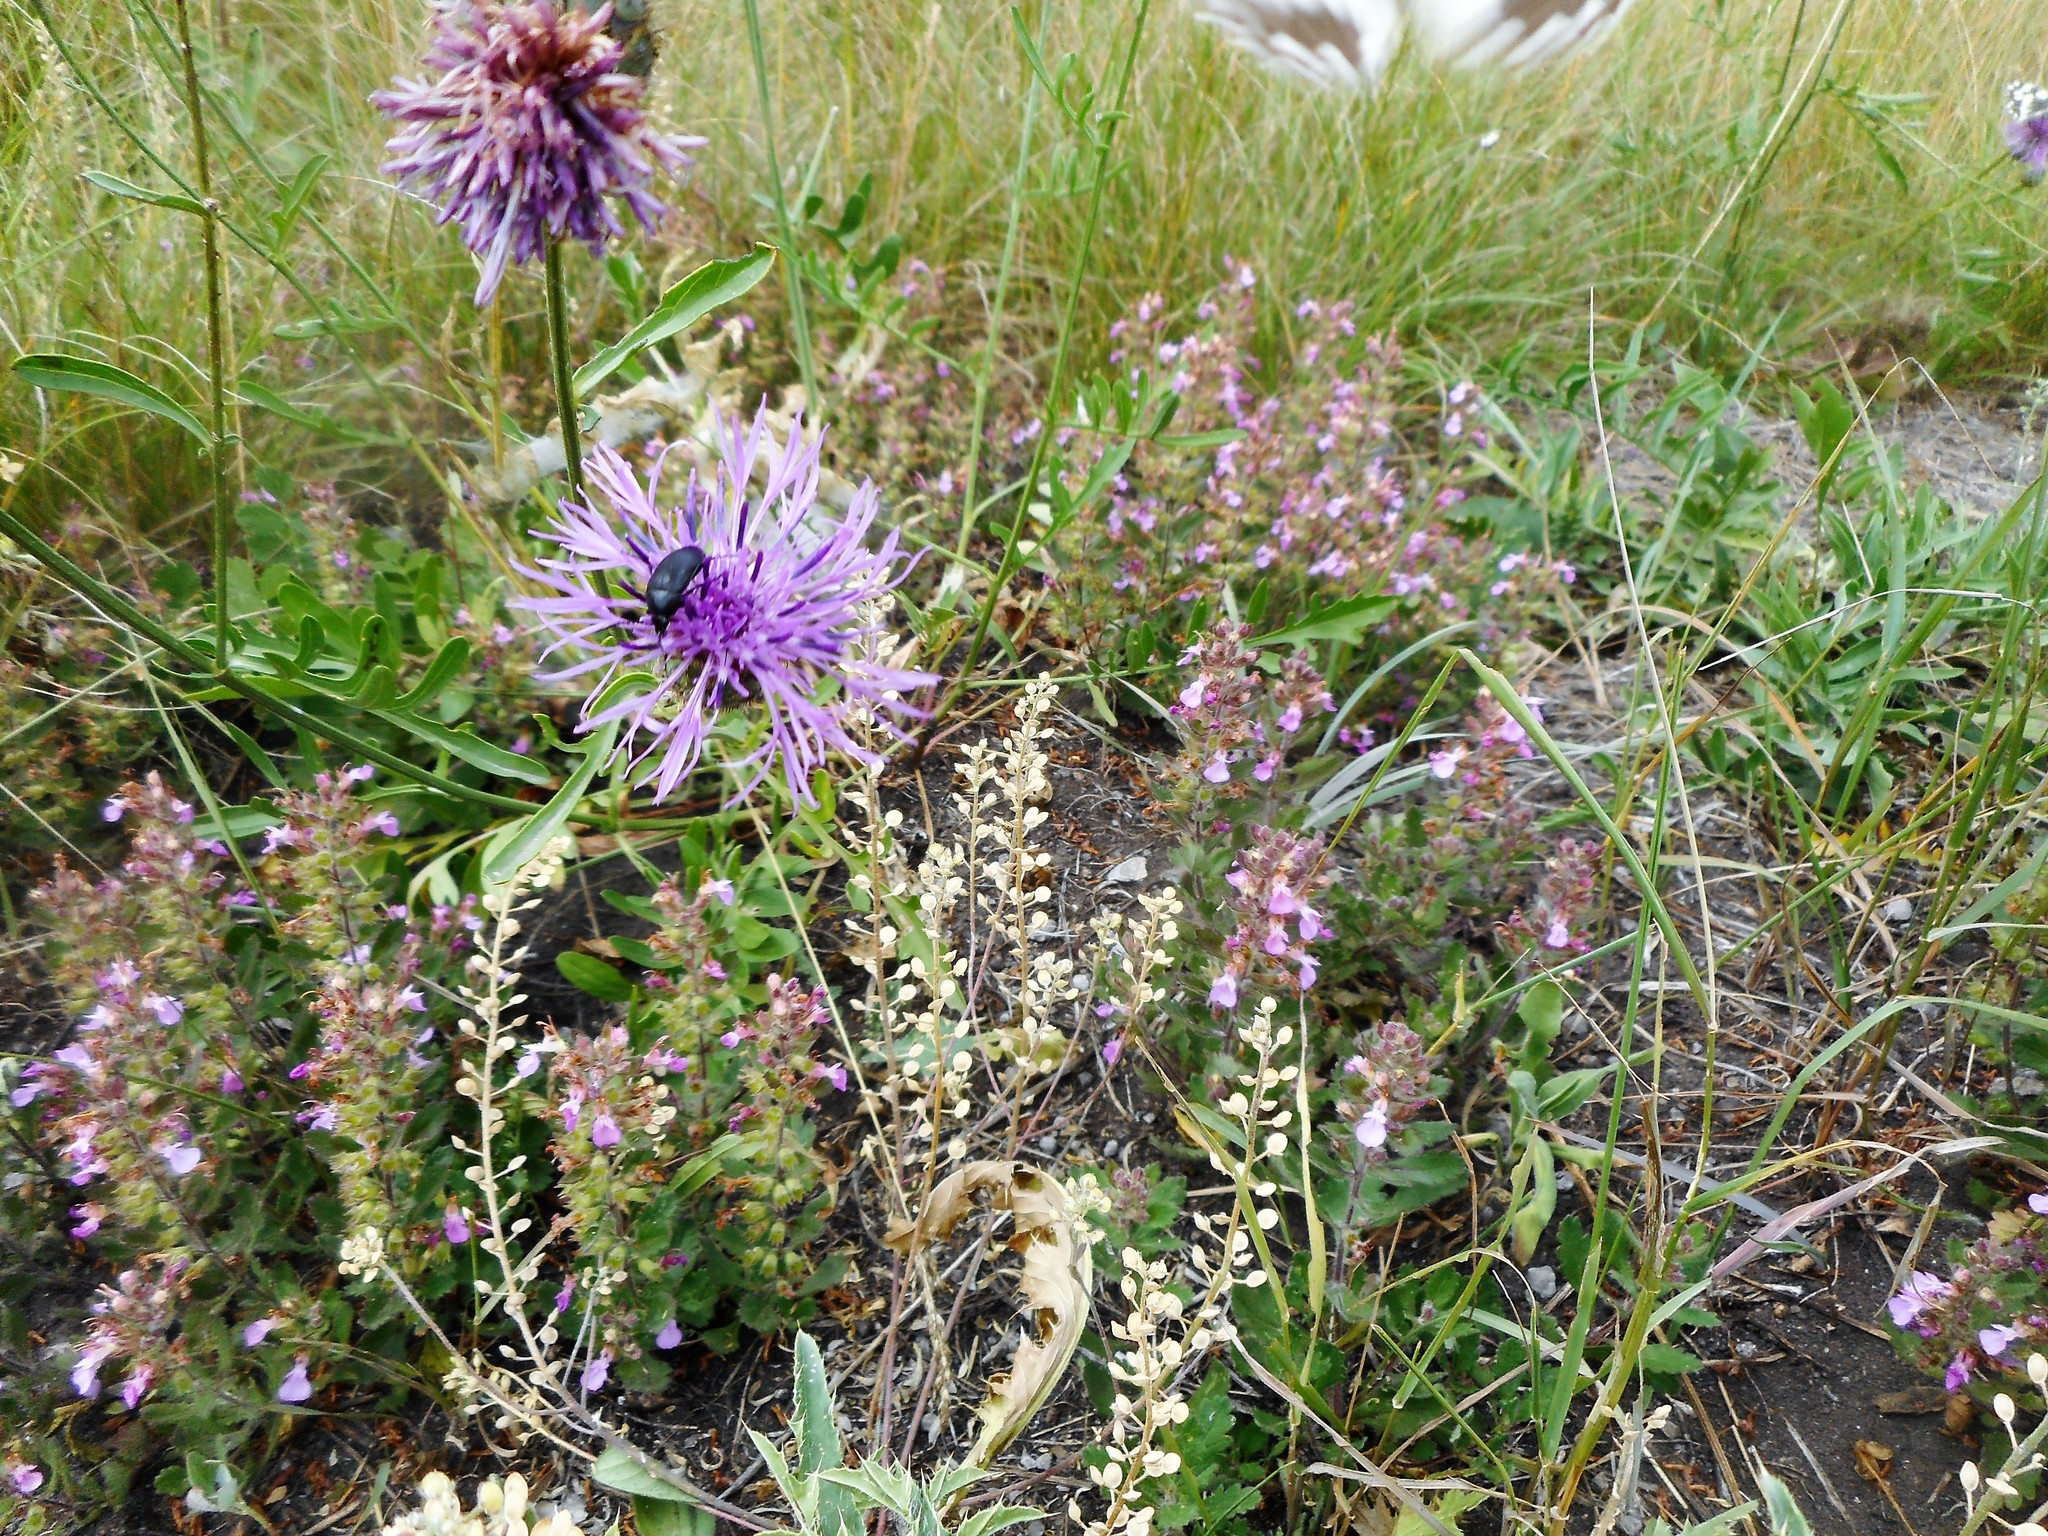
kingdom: Plantae
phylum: Tracheophyta
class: Magnoliopsida
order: Asterales
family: Asteraceae
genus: Centaurea
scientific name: Centaurea scabiosa
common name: Greater knapweed
